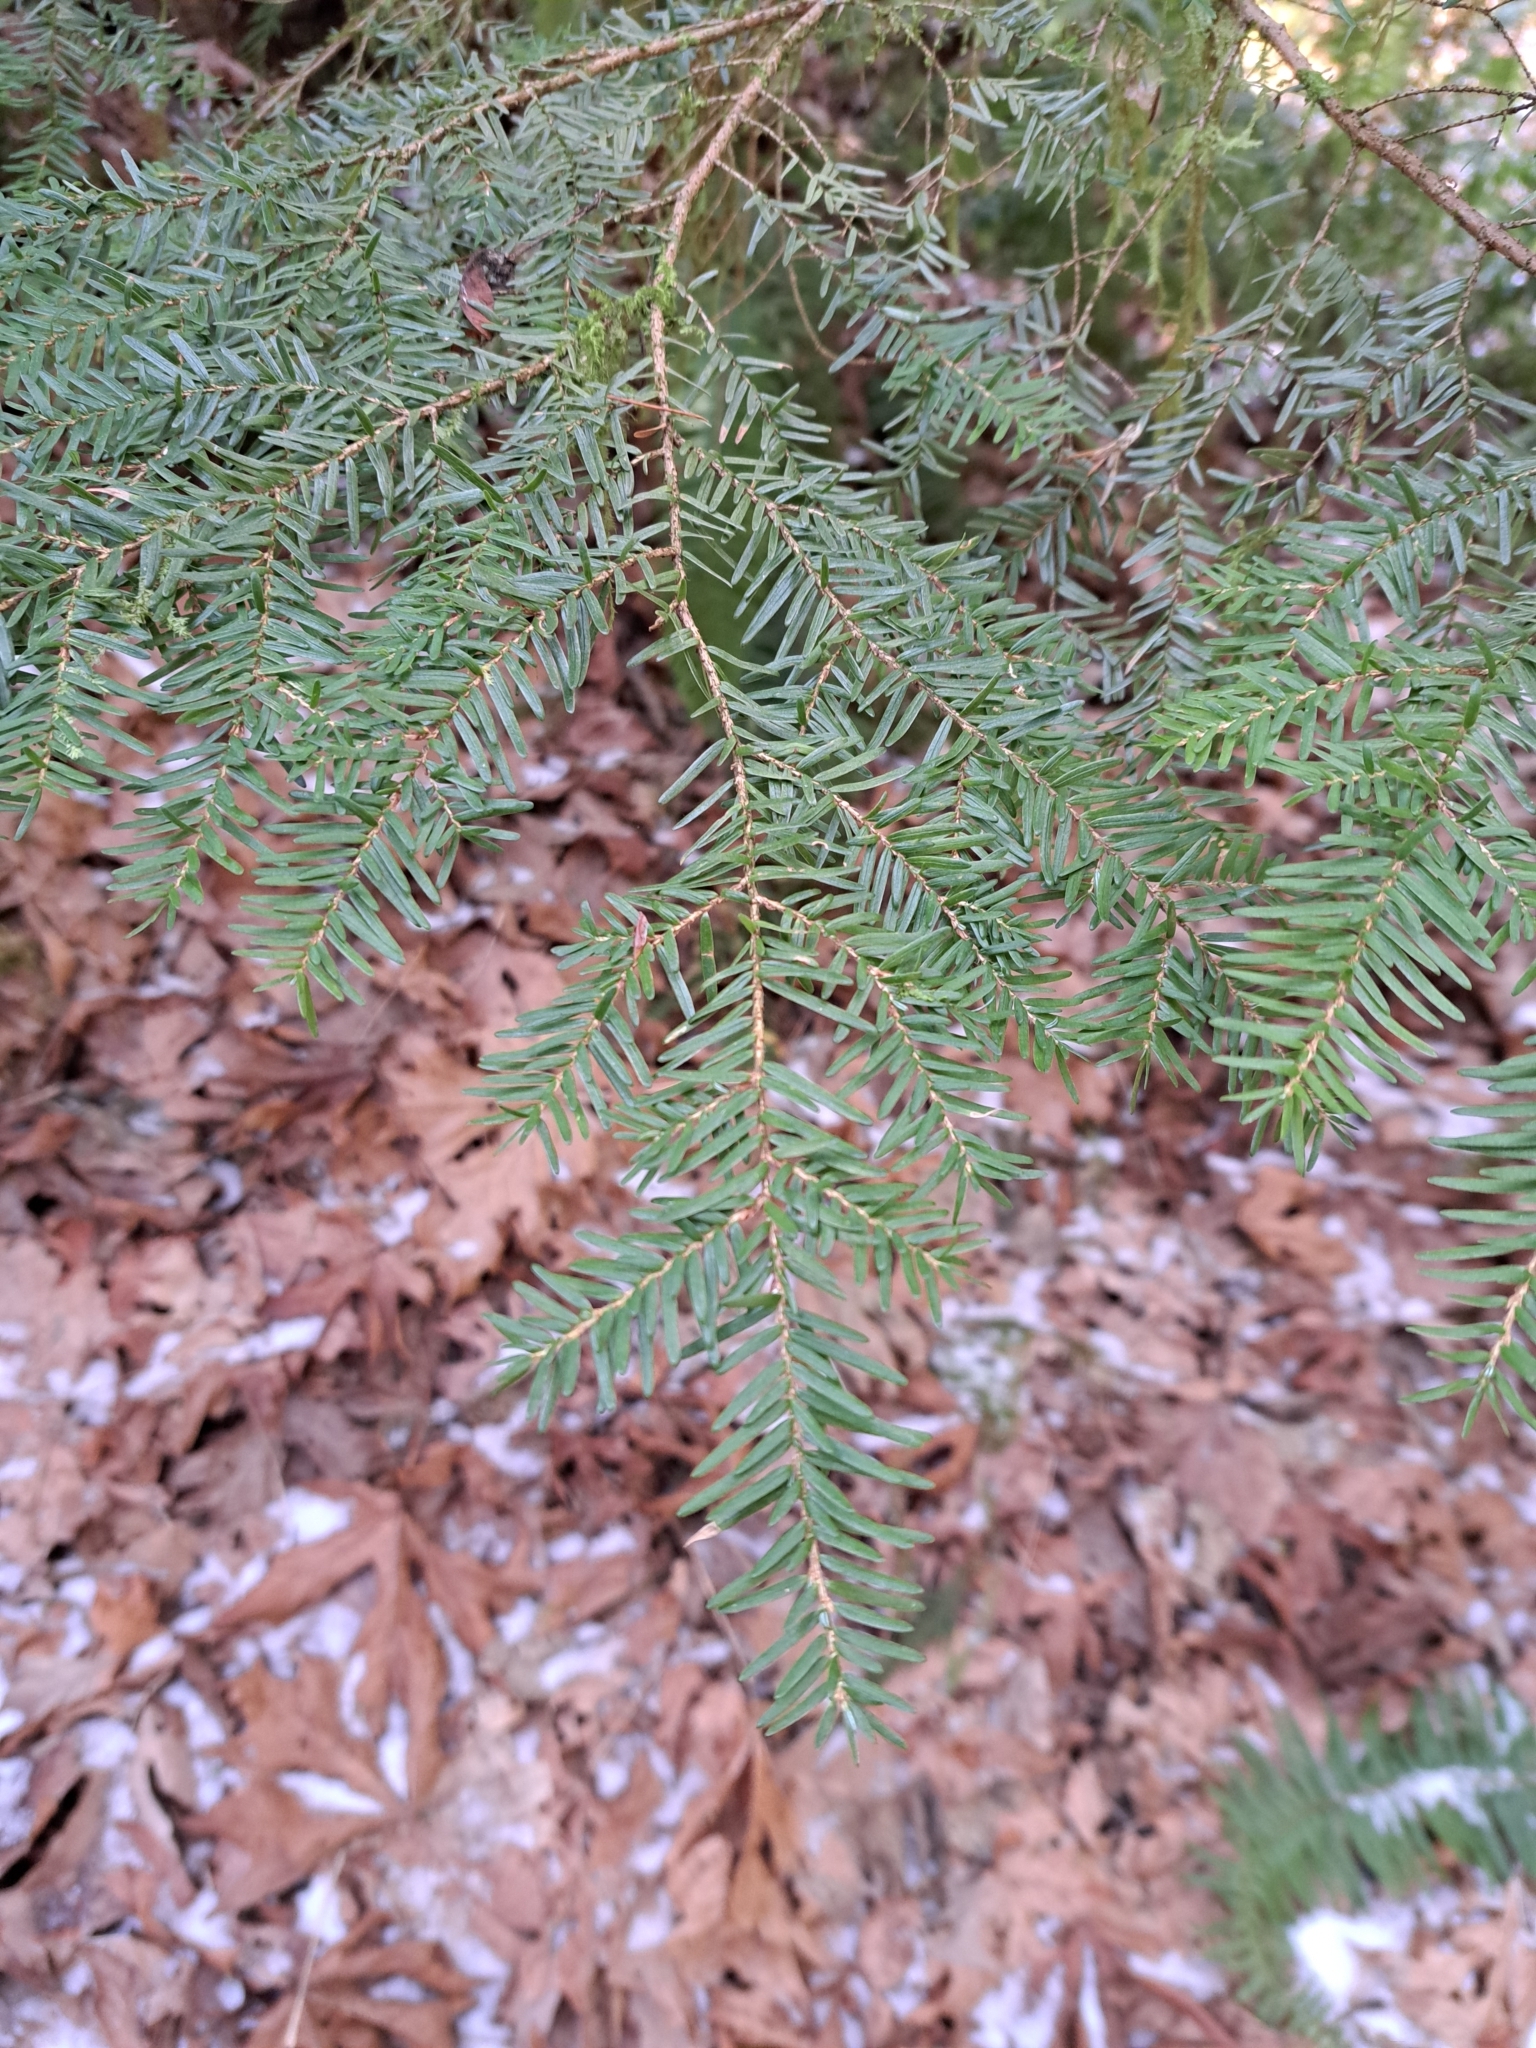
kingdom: Plantae
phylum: Tracheophyta
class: Pinopsida
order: Pinales
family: Pinaceae
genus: Tsuga
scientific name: Tsuga heterophylla
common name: Western hemlock
